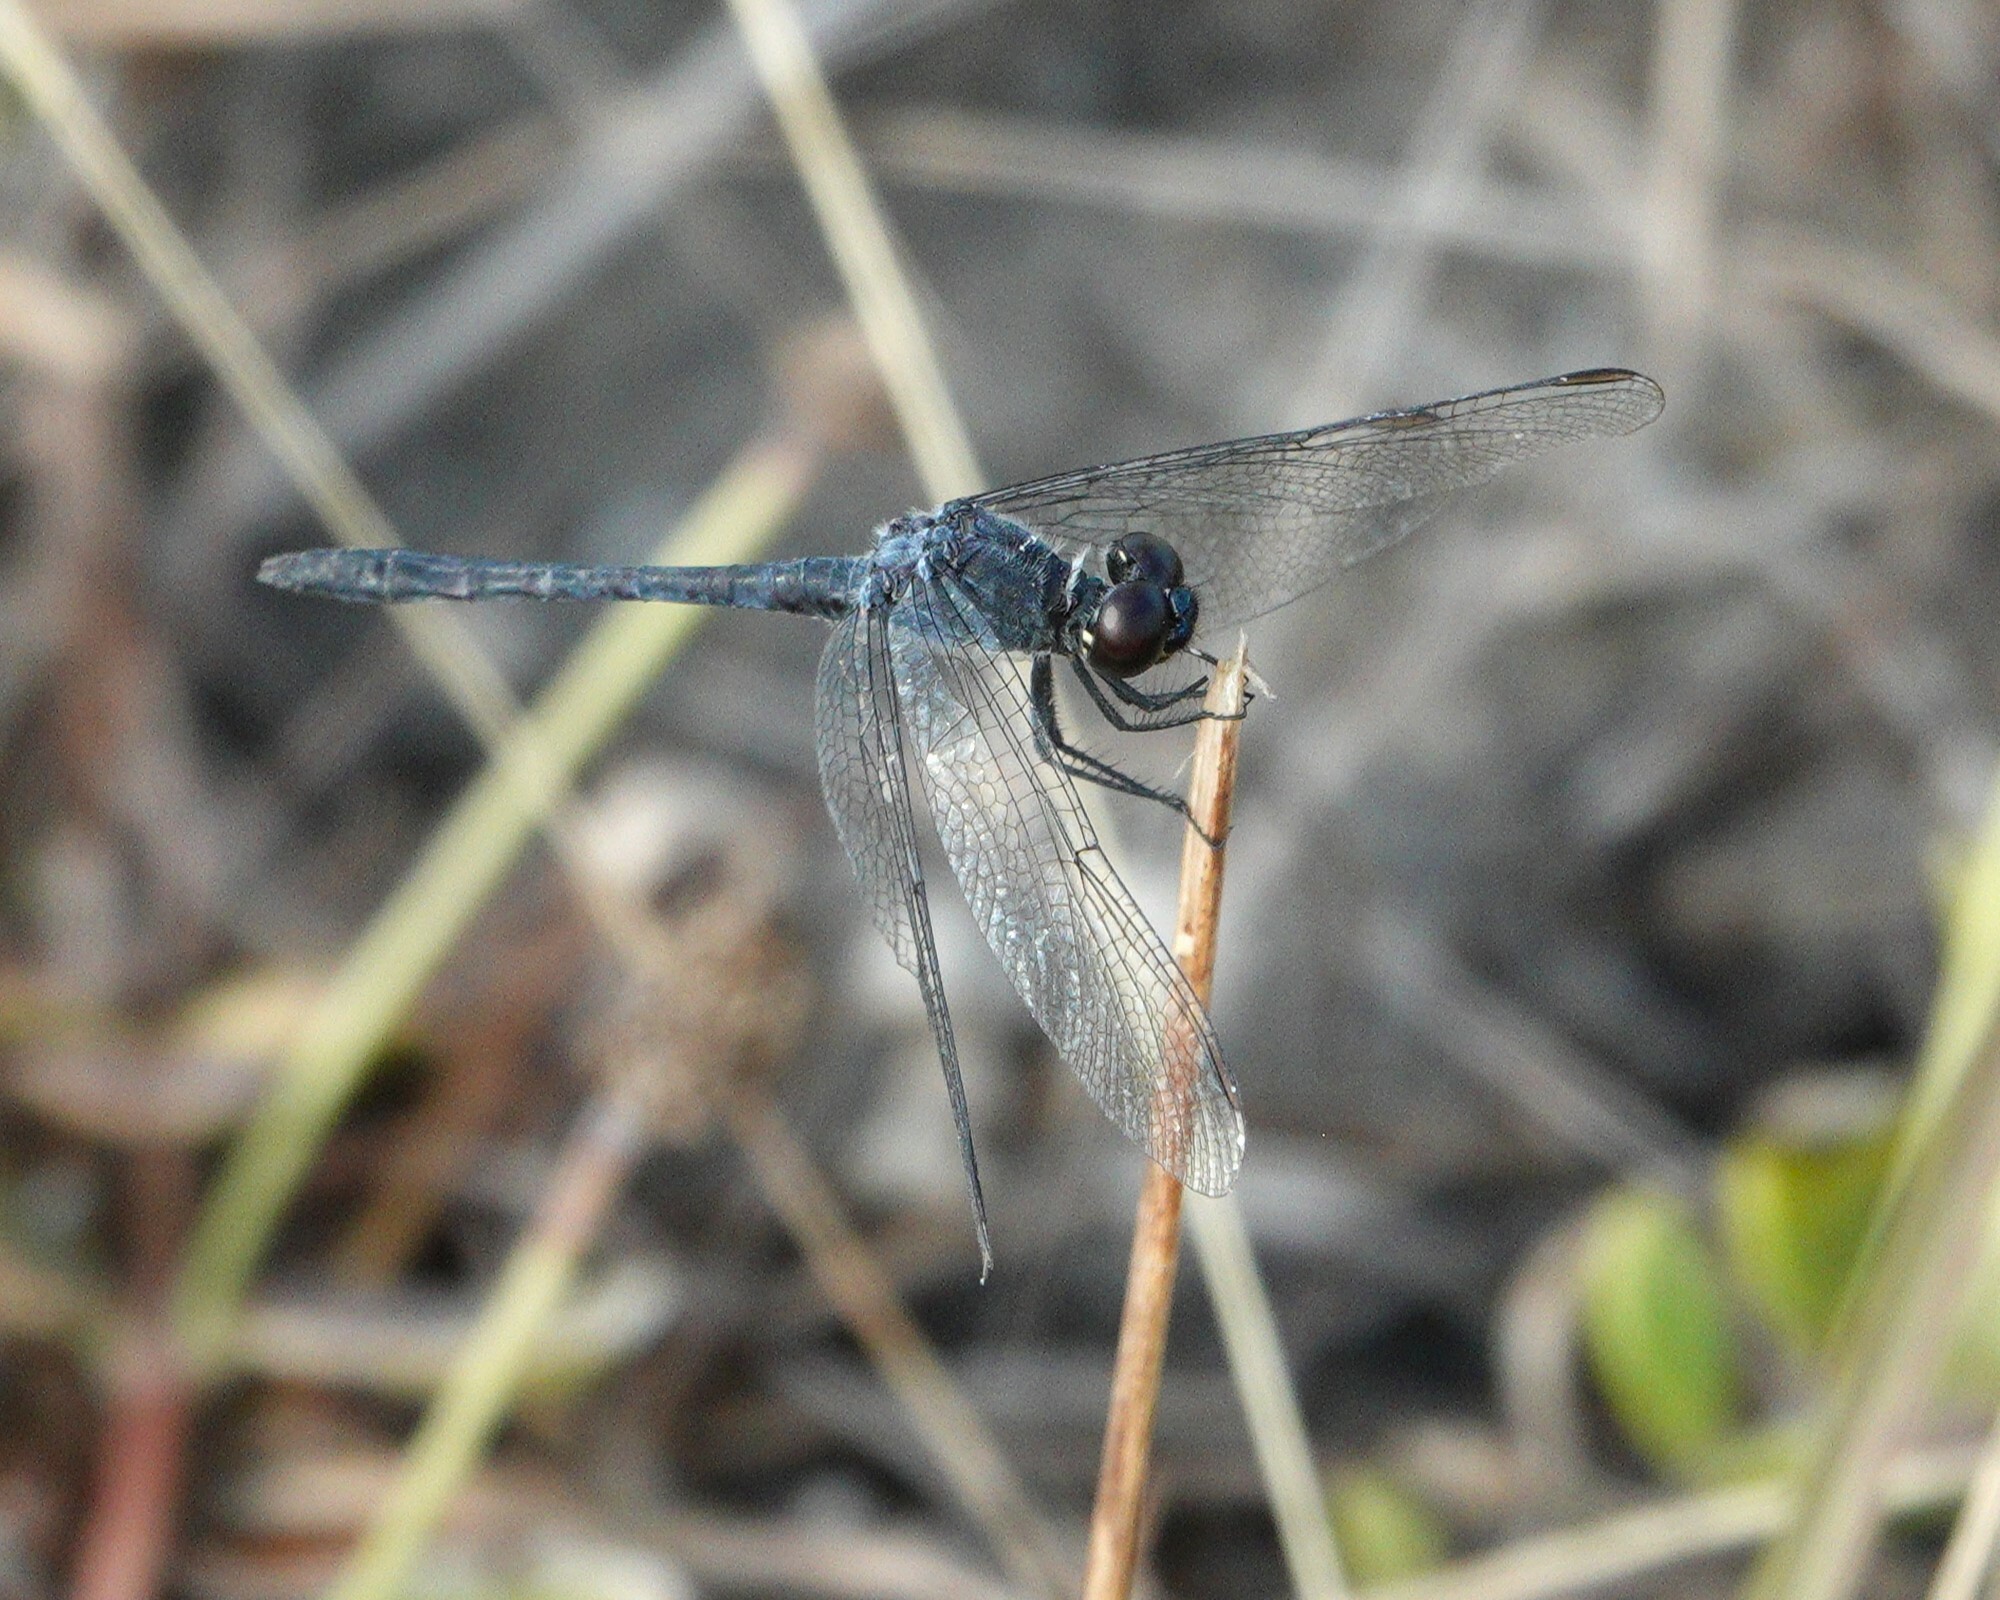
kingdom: Animalia
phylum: Arthropoda
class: Insecta
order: Odonata
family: Libellulidae
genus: Erythrodiplax
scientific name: Erythrodiplax berenice
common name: Seaside dragonlet
